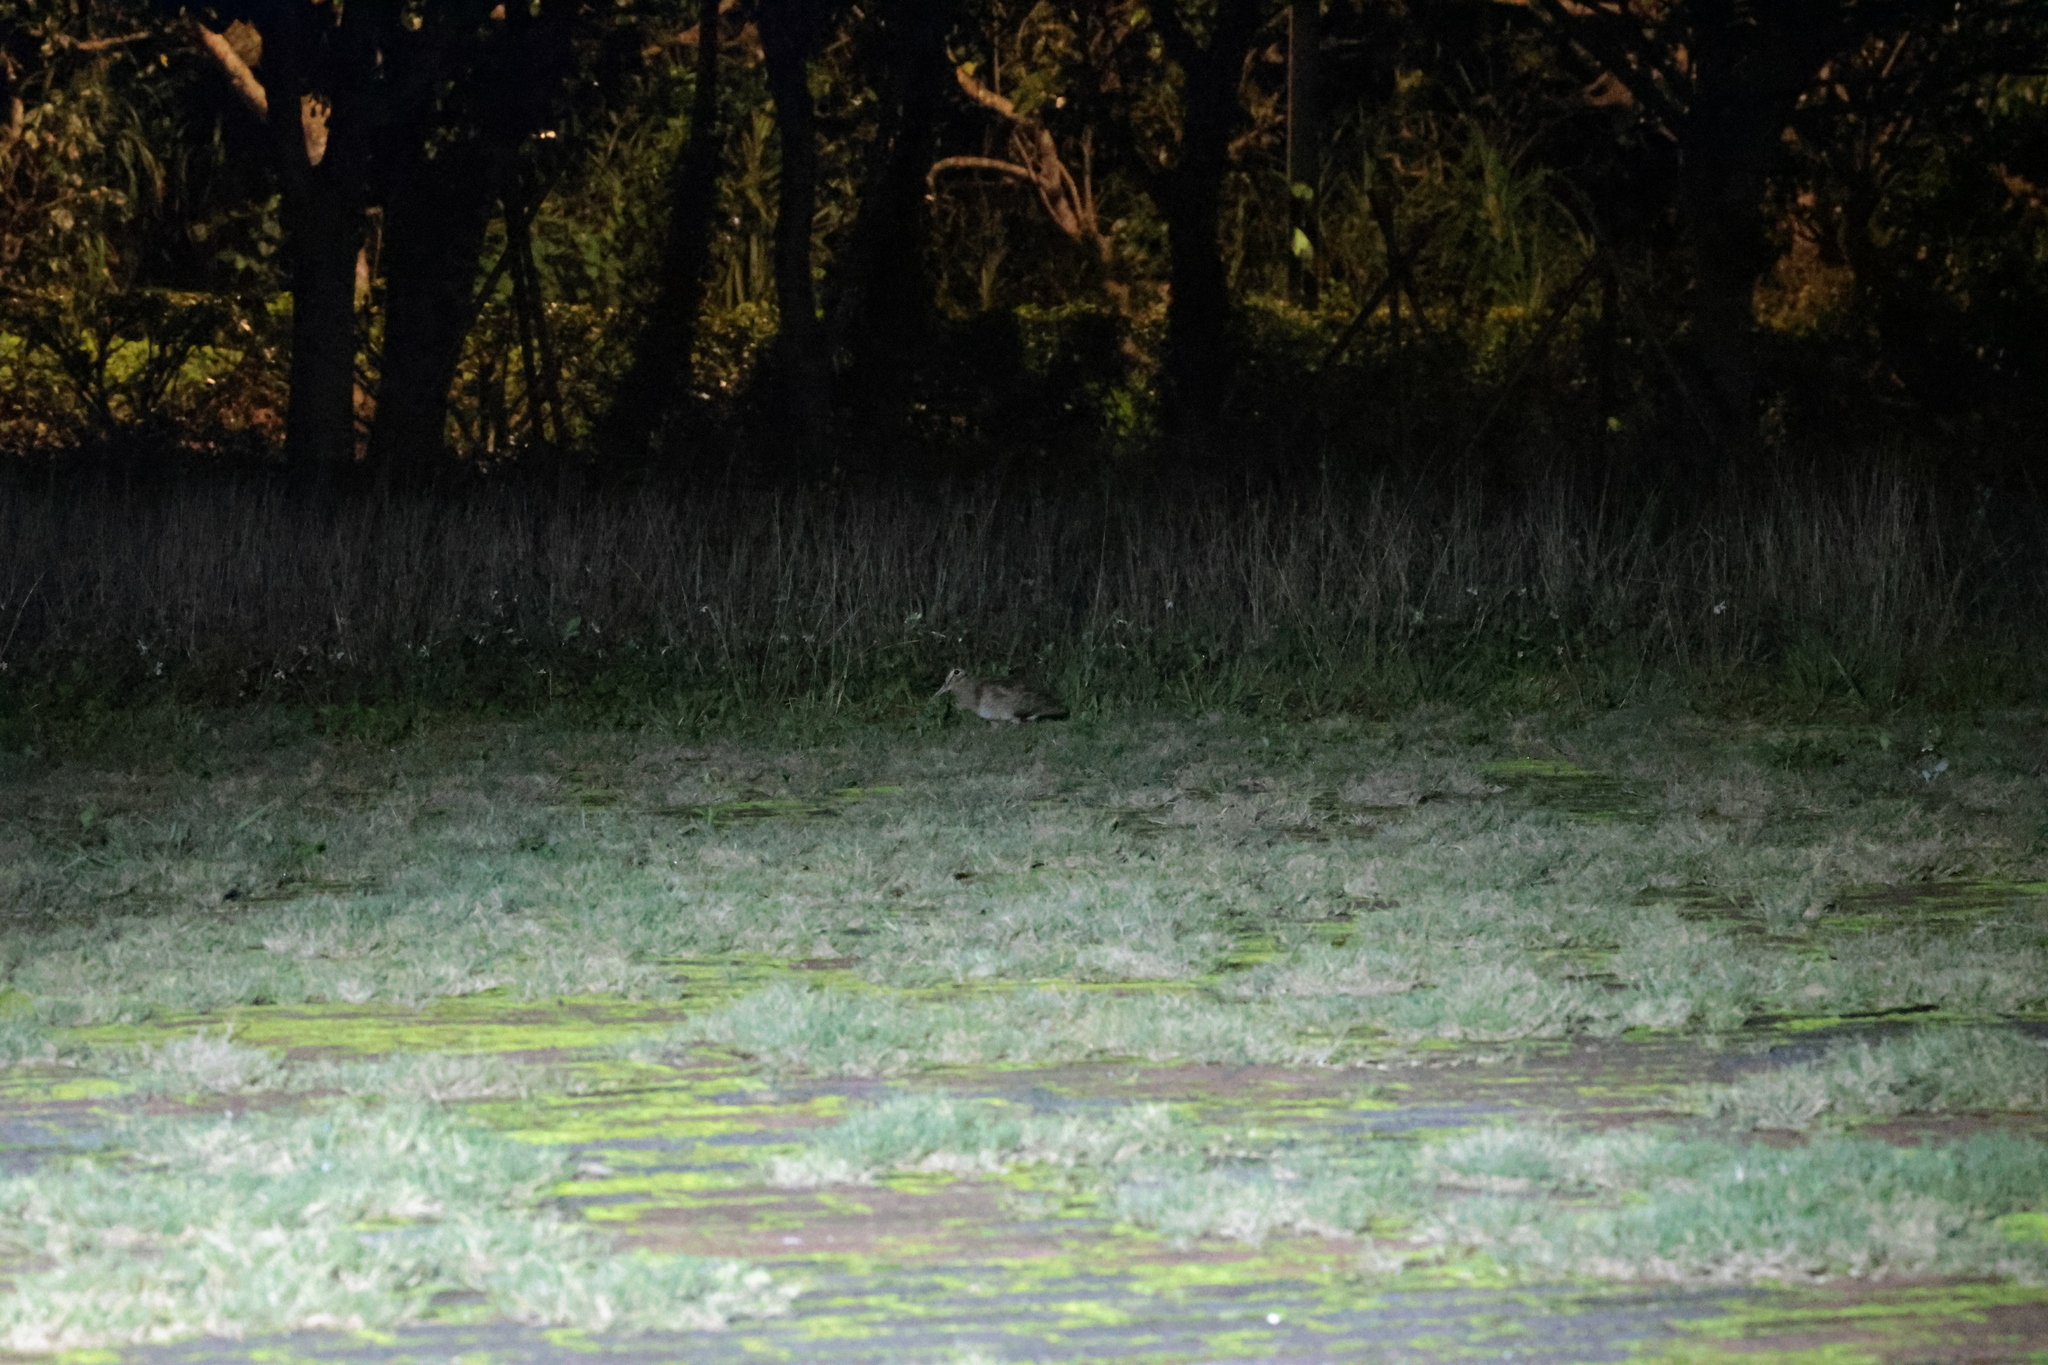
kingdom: Animalia
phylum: Chordata
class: Aves
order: Charadriiformes
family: Scolopacidae
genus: Scolopax
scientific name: Scolopax rusticola
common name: Eurasian woodcock
